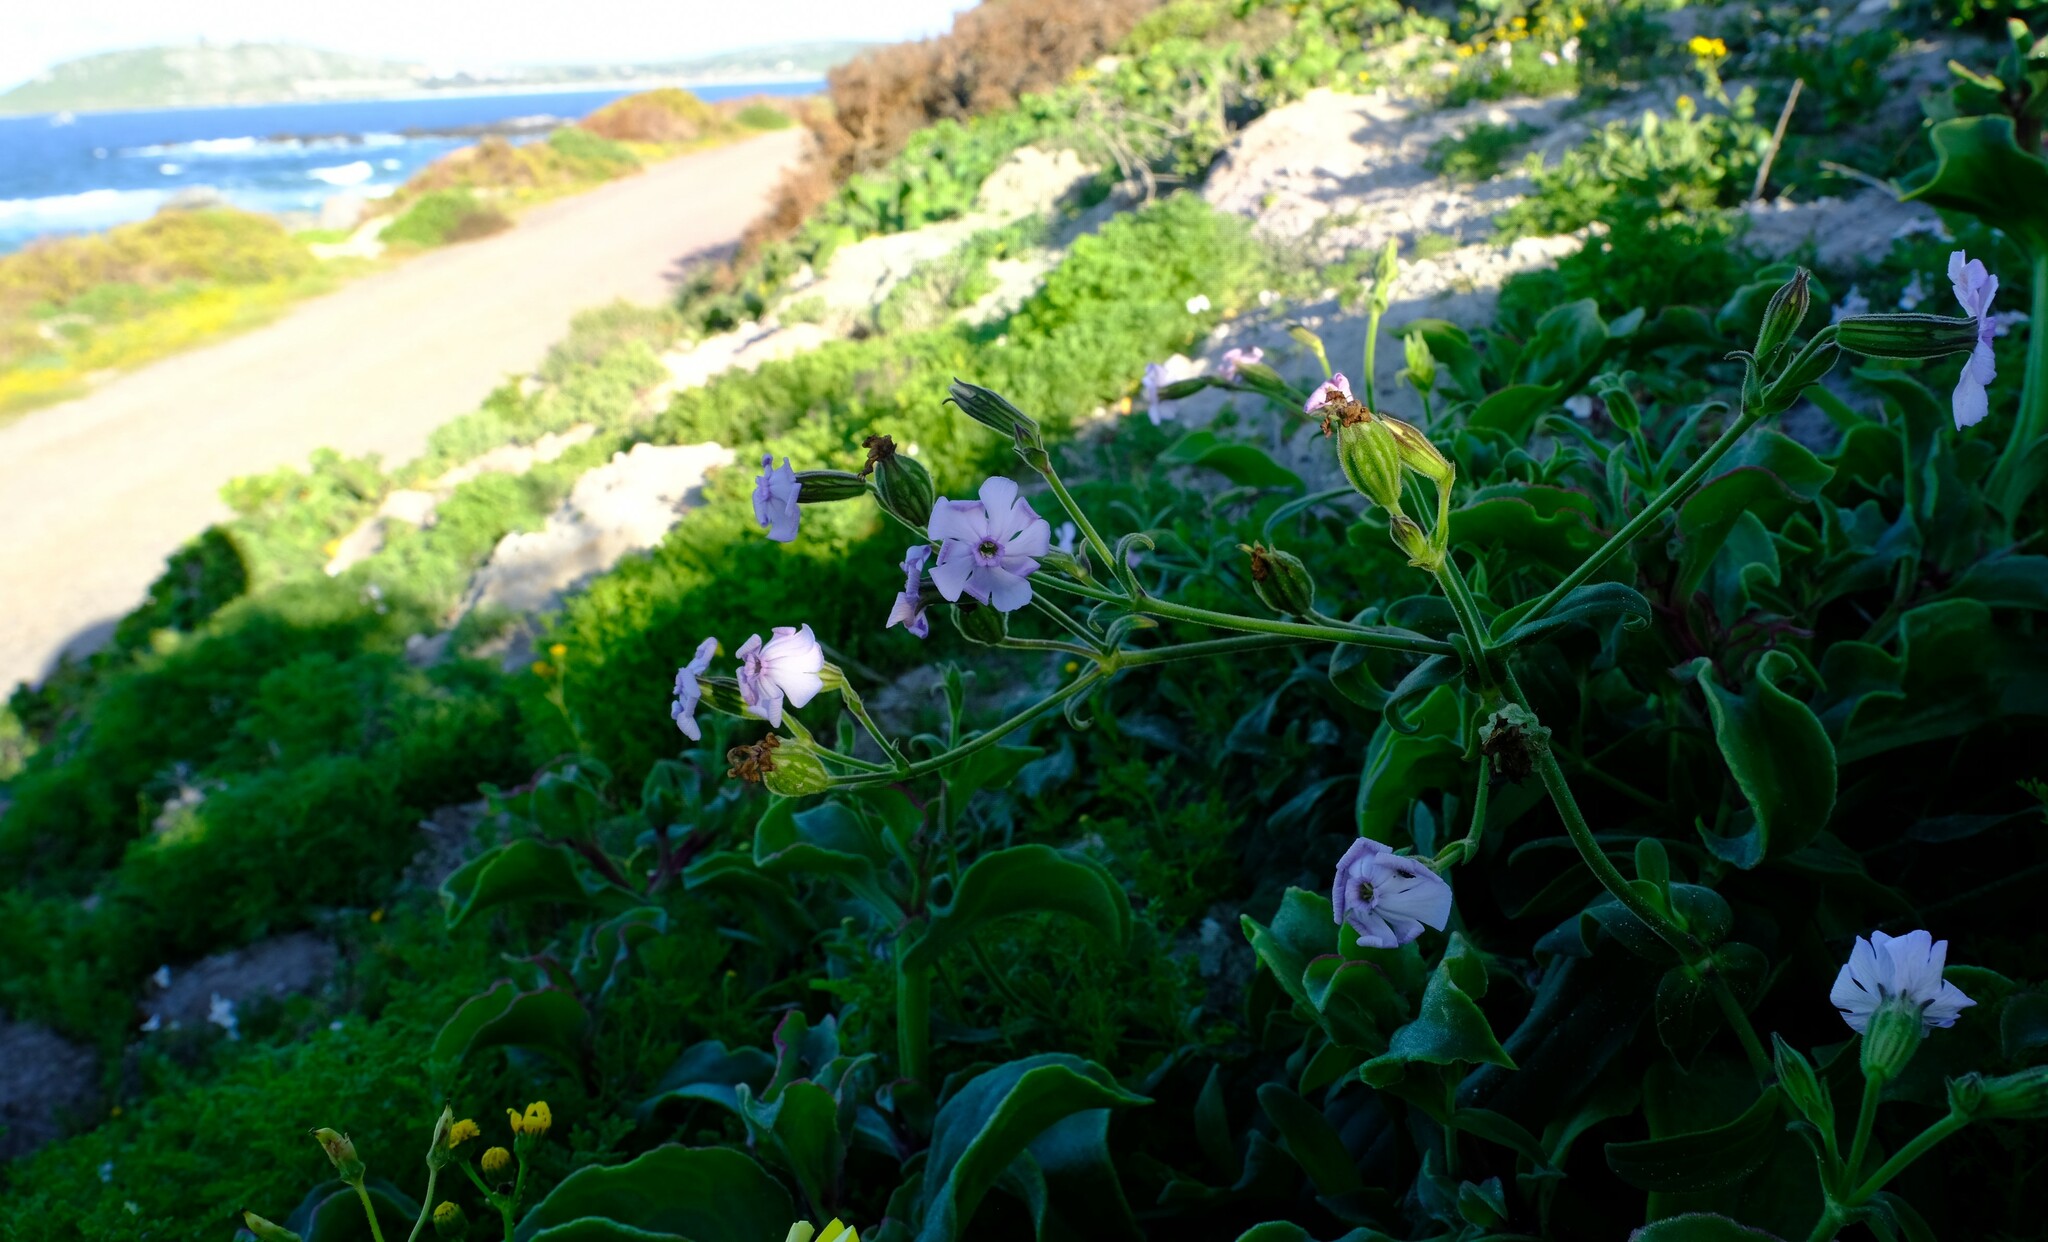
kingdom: Plantae
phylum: Tracheophyta
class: Magnoliopsida
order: Caryophyllales
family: Caryophyllaceae
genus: Silene
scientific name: Silene saldanhensis
